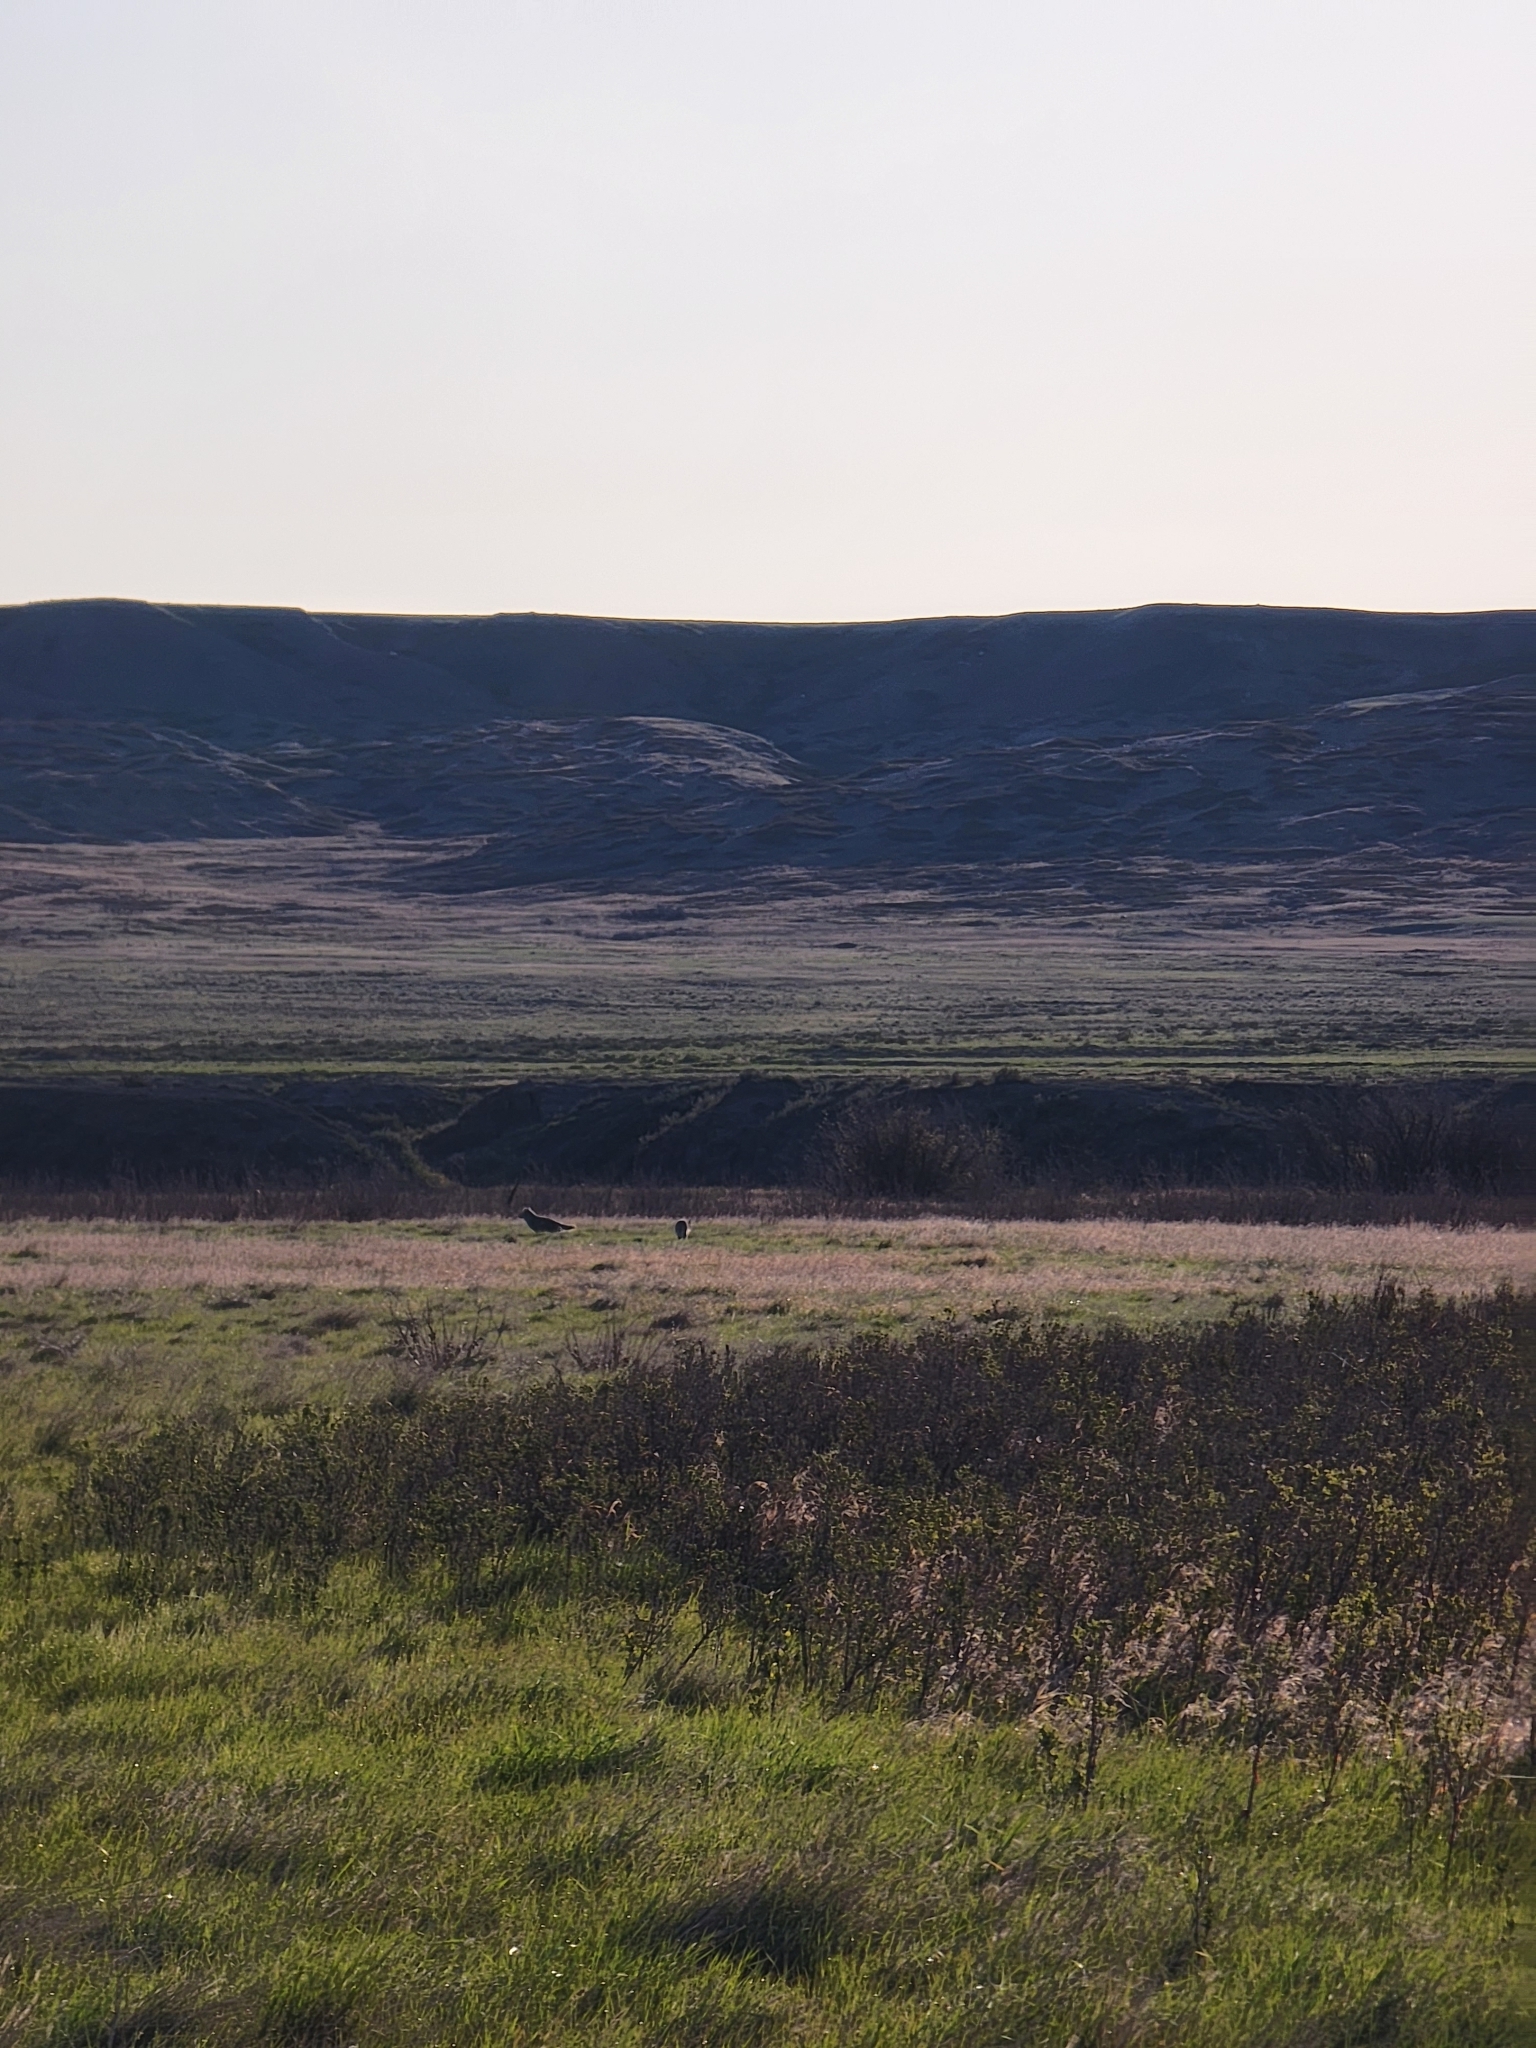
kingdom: Animalia
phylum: Chordata
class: Mammalia
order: Carnivora
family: Canidae
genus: Canis
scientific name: Canis latrans
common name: Coyote
